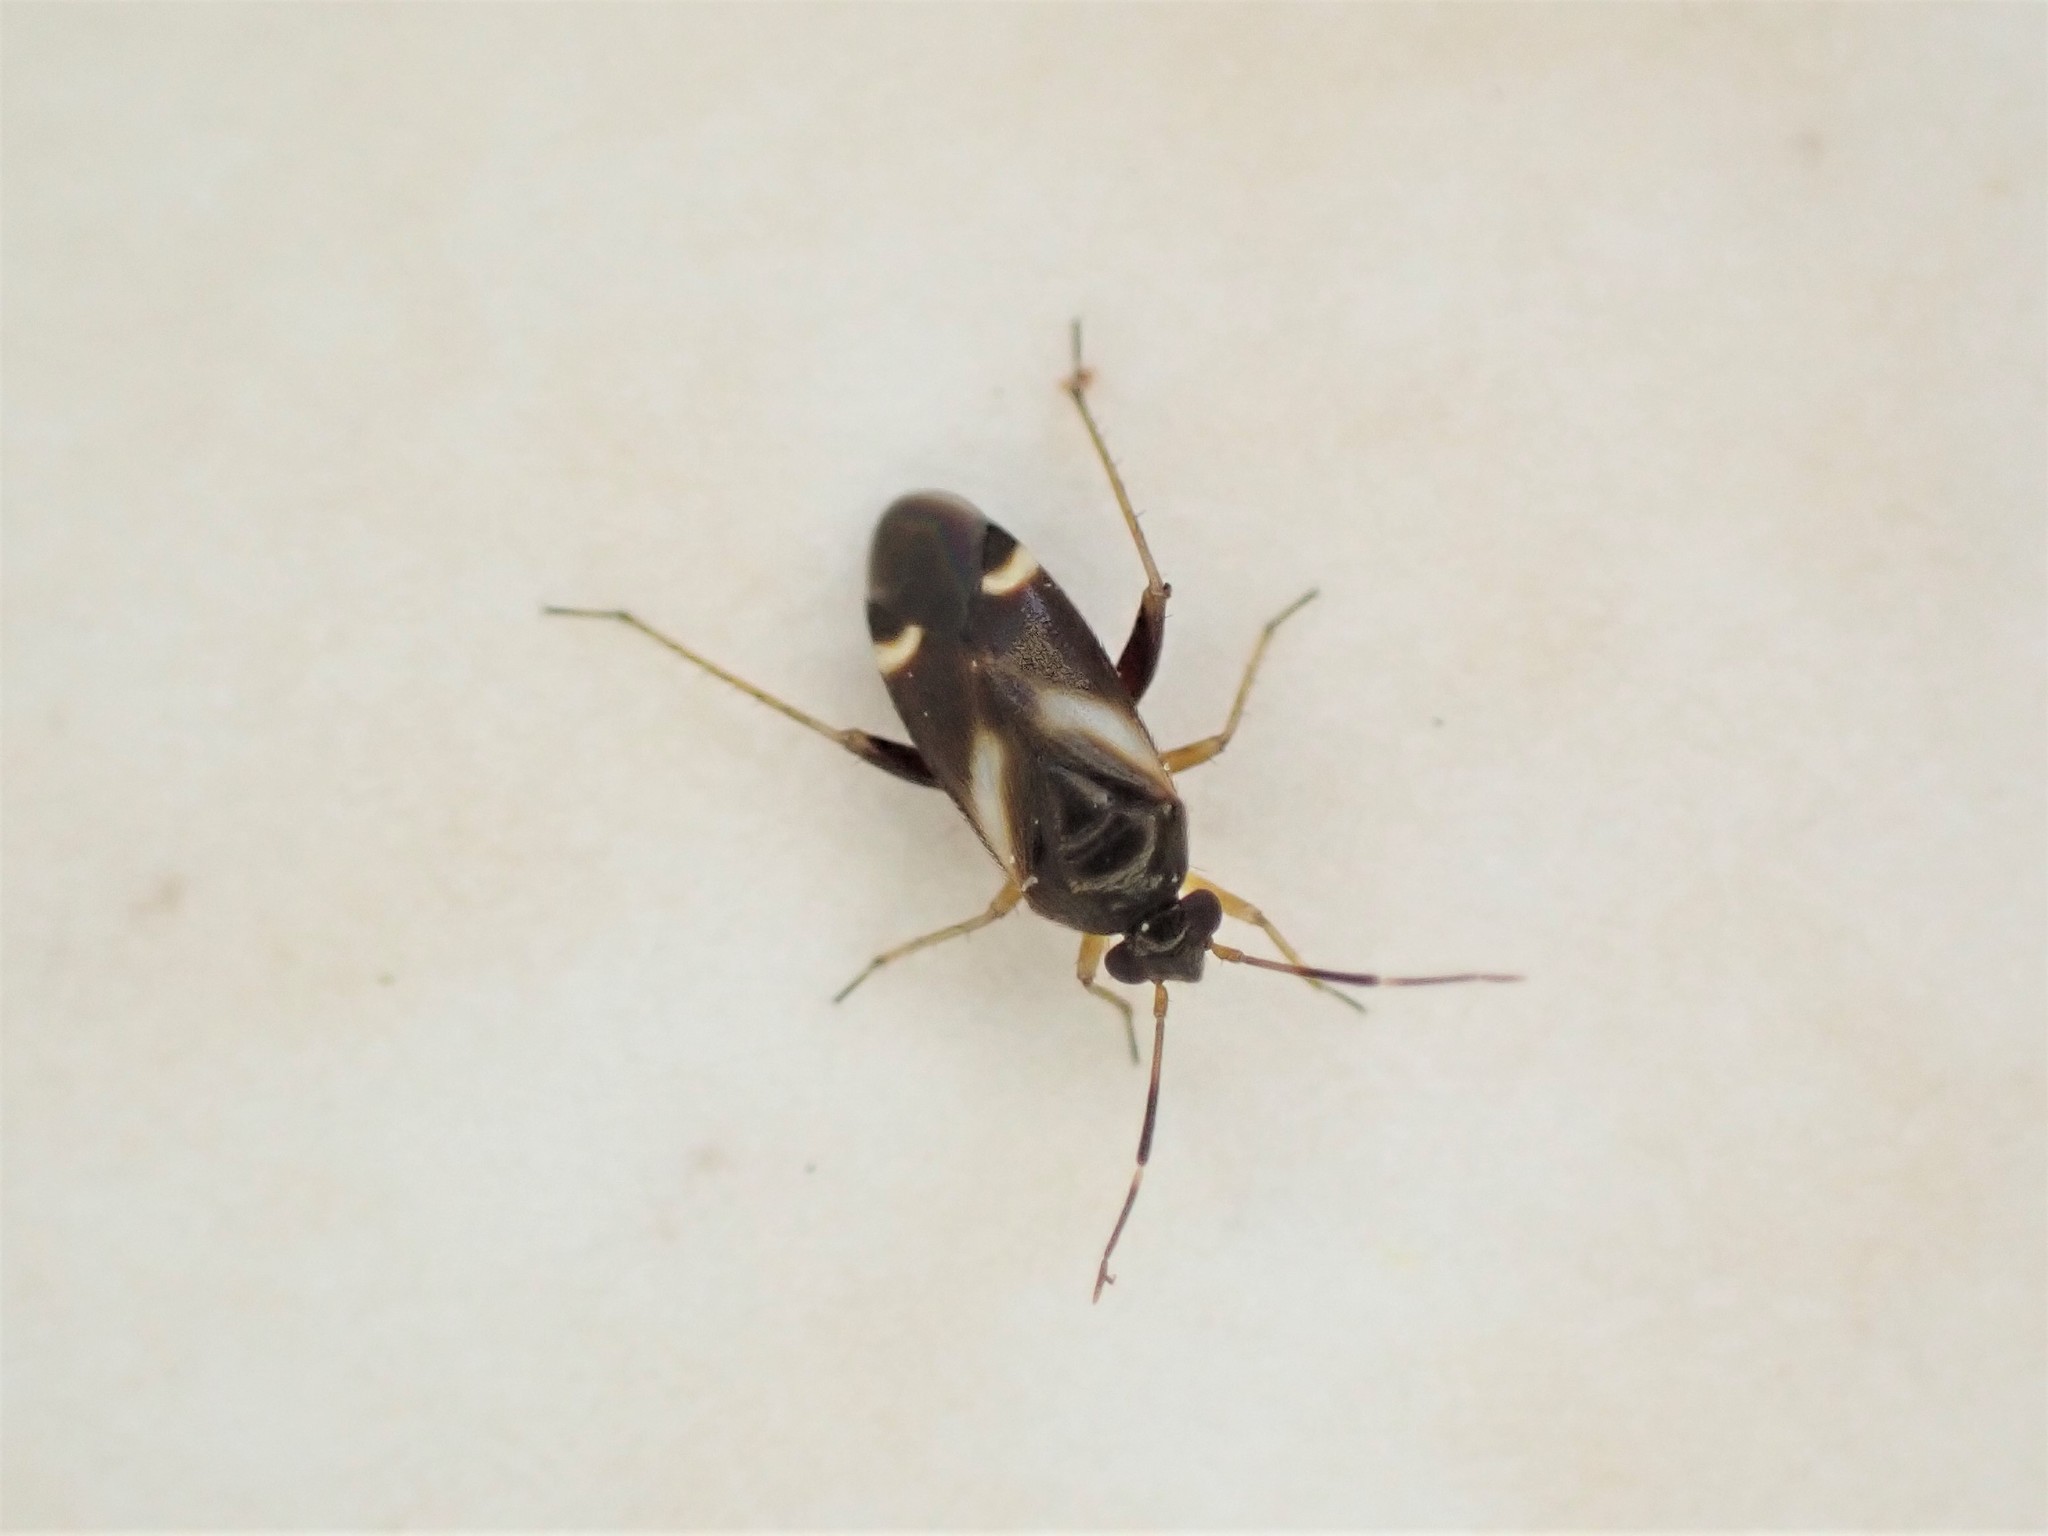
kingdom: Animalia
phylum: Arthropoda
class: Insecta
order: Hemiptera
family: Miridae
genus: Ausejanus
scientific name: Ausejanus albisignatus
